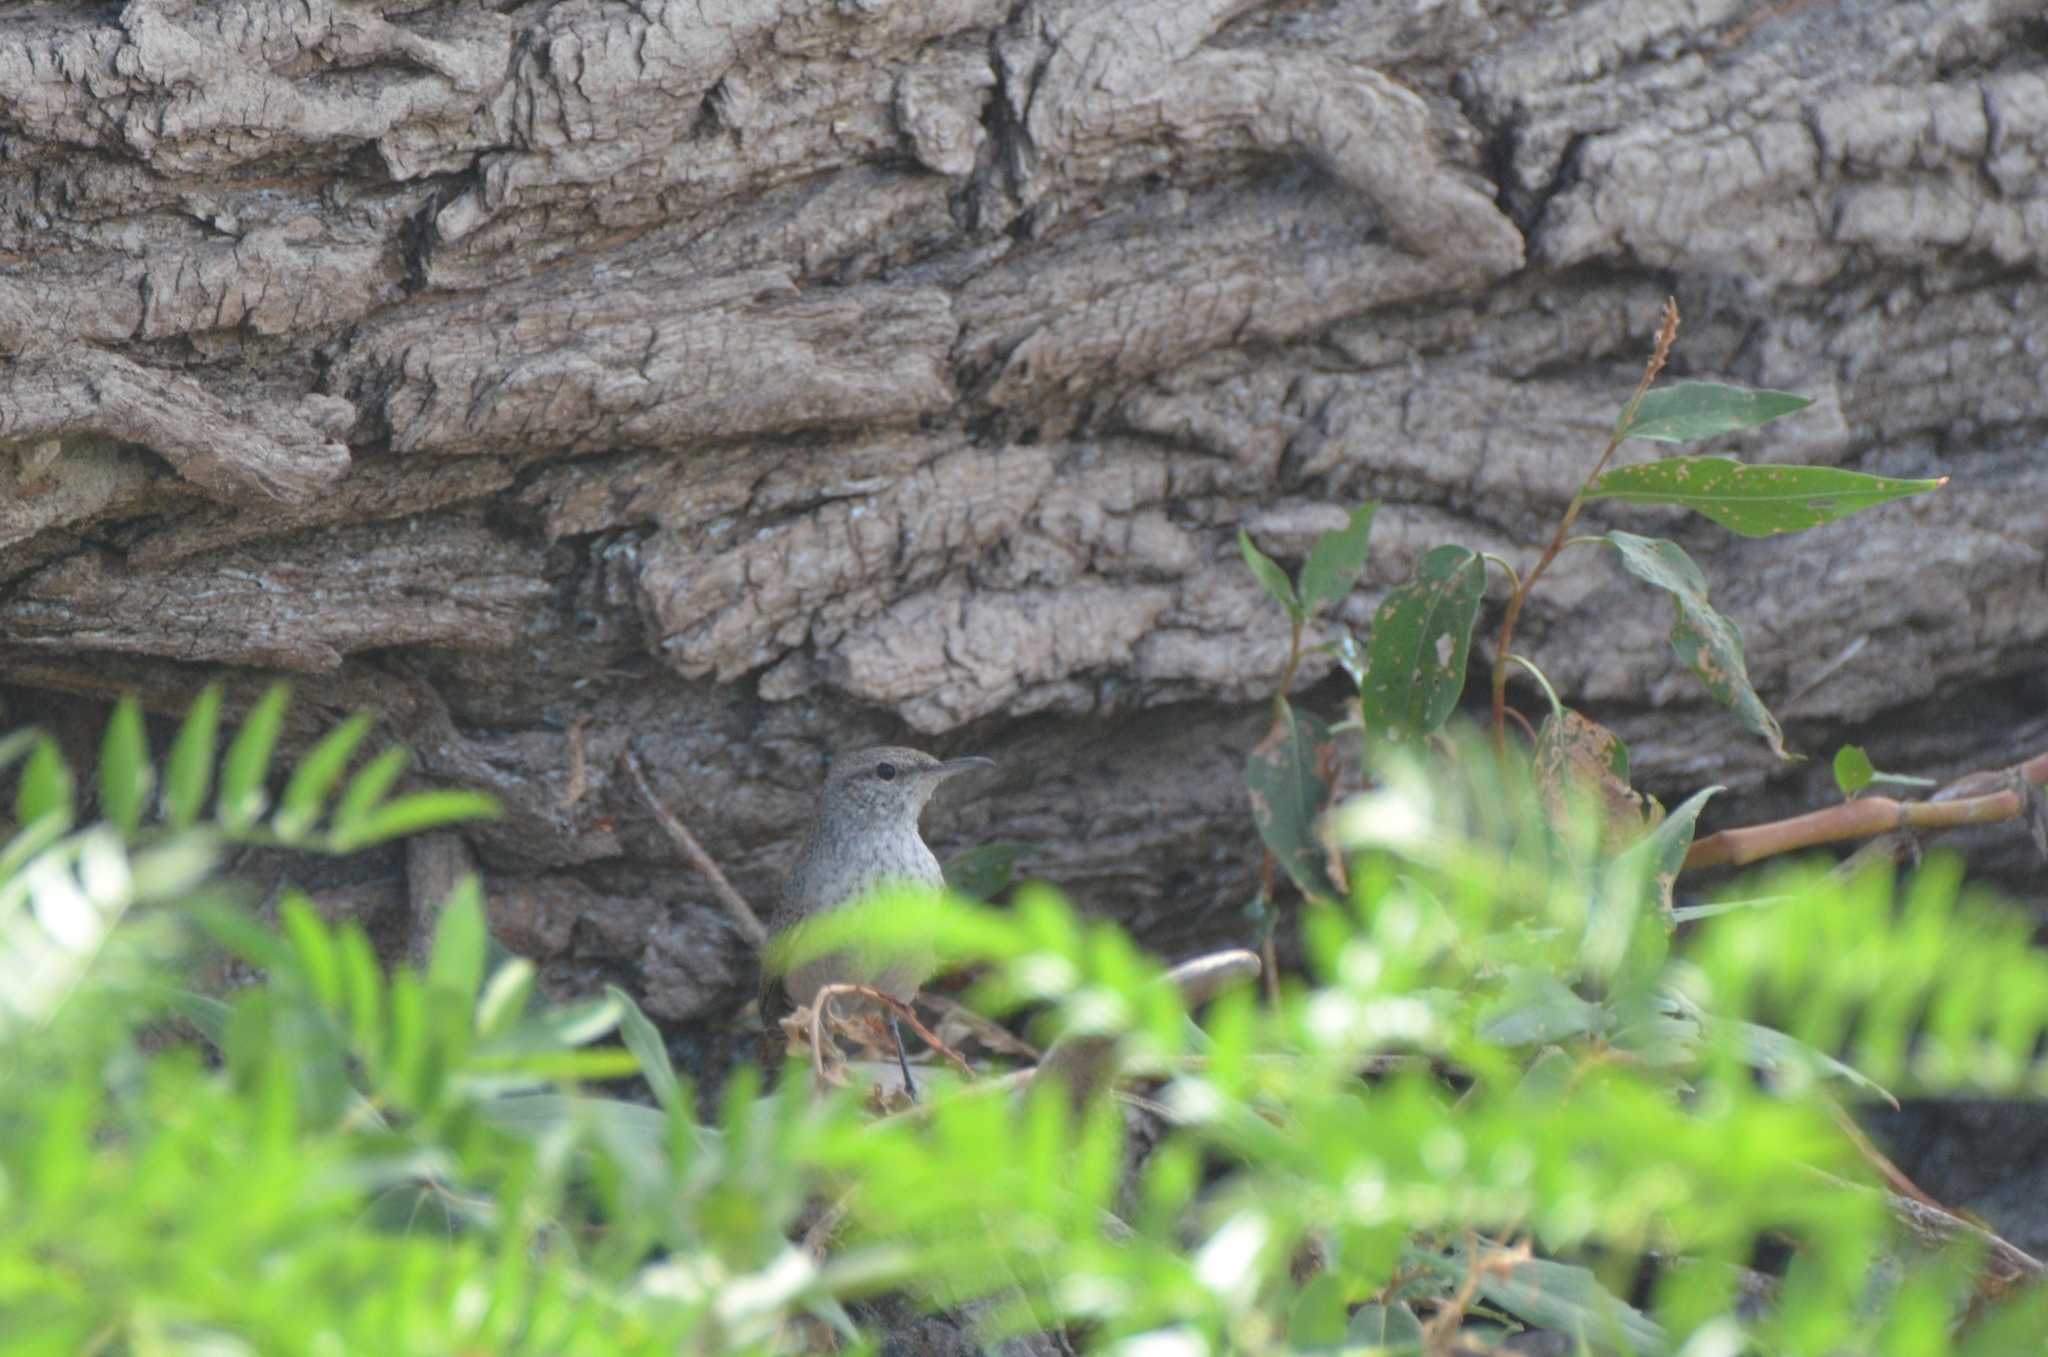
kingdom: Animalia
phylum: Chordata
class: Aves
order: Passeriformes
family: Troglodytidae
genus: Salpinctes
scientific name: Salpinctes obsoletus
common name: Rock wren
